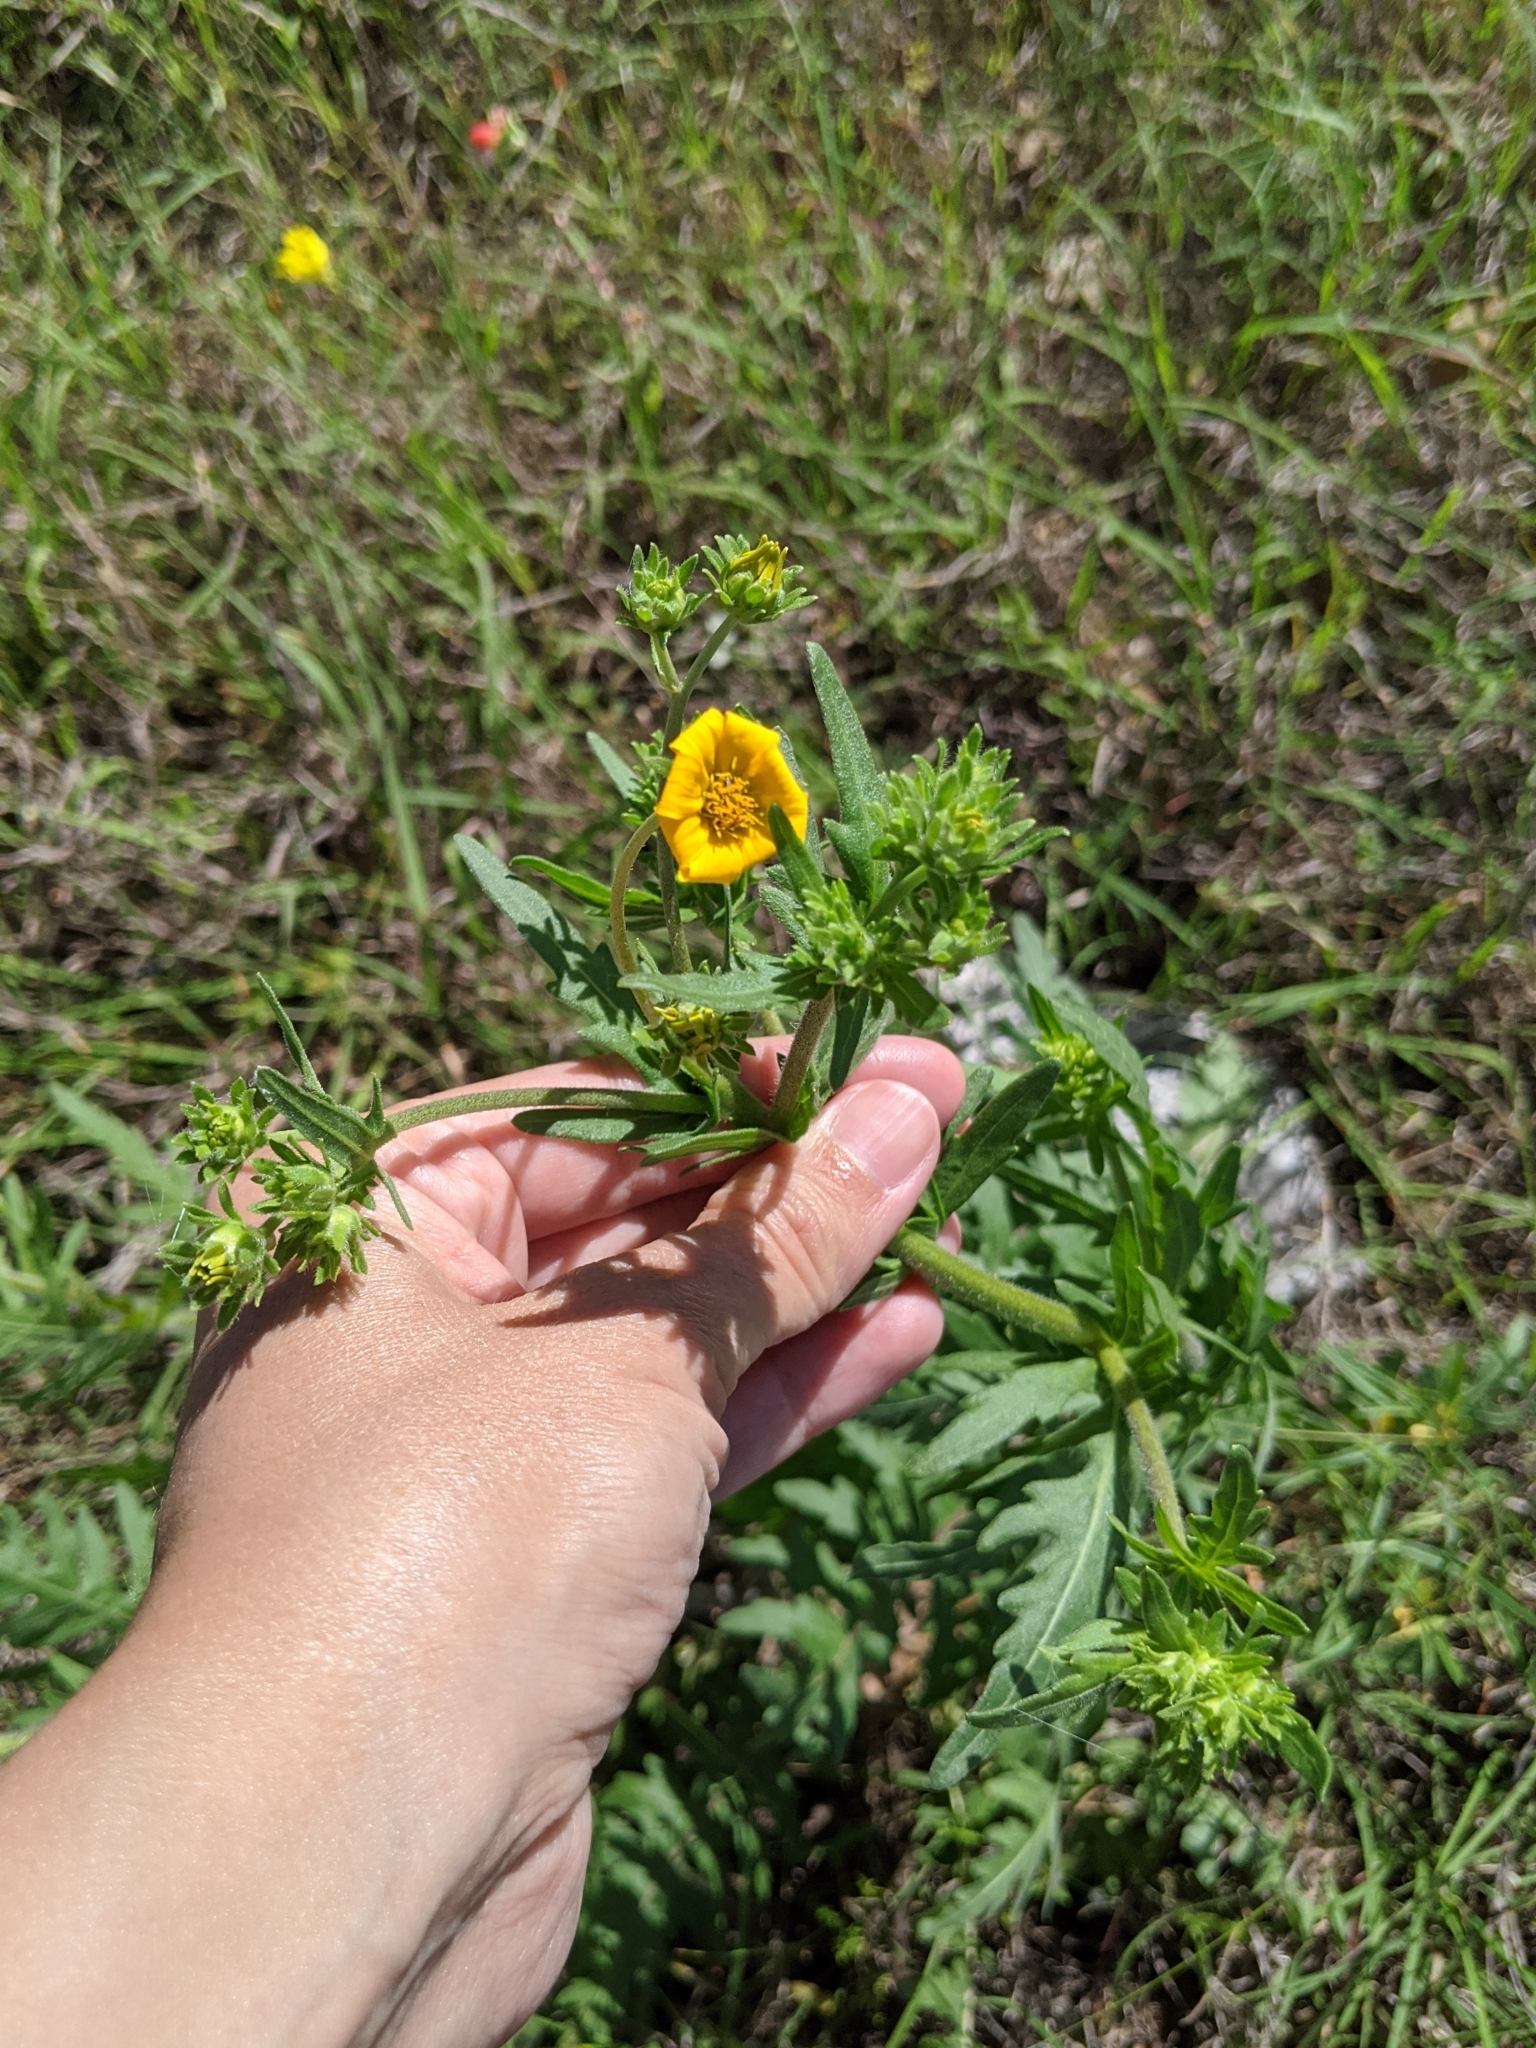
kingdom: Plantae
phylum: Tracheophyta
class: Magnoliopsida
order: Asterales
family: Asteraceae
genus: Engelmannia
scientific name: Engelmannia peristenia
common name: Engelmann's daisy
